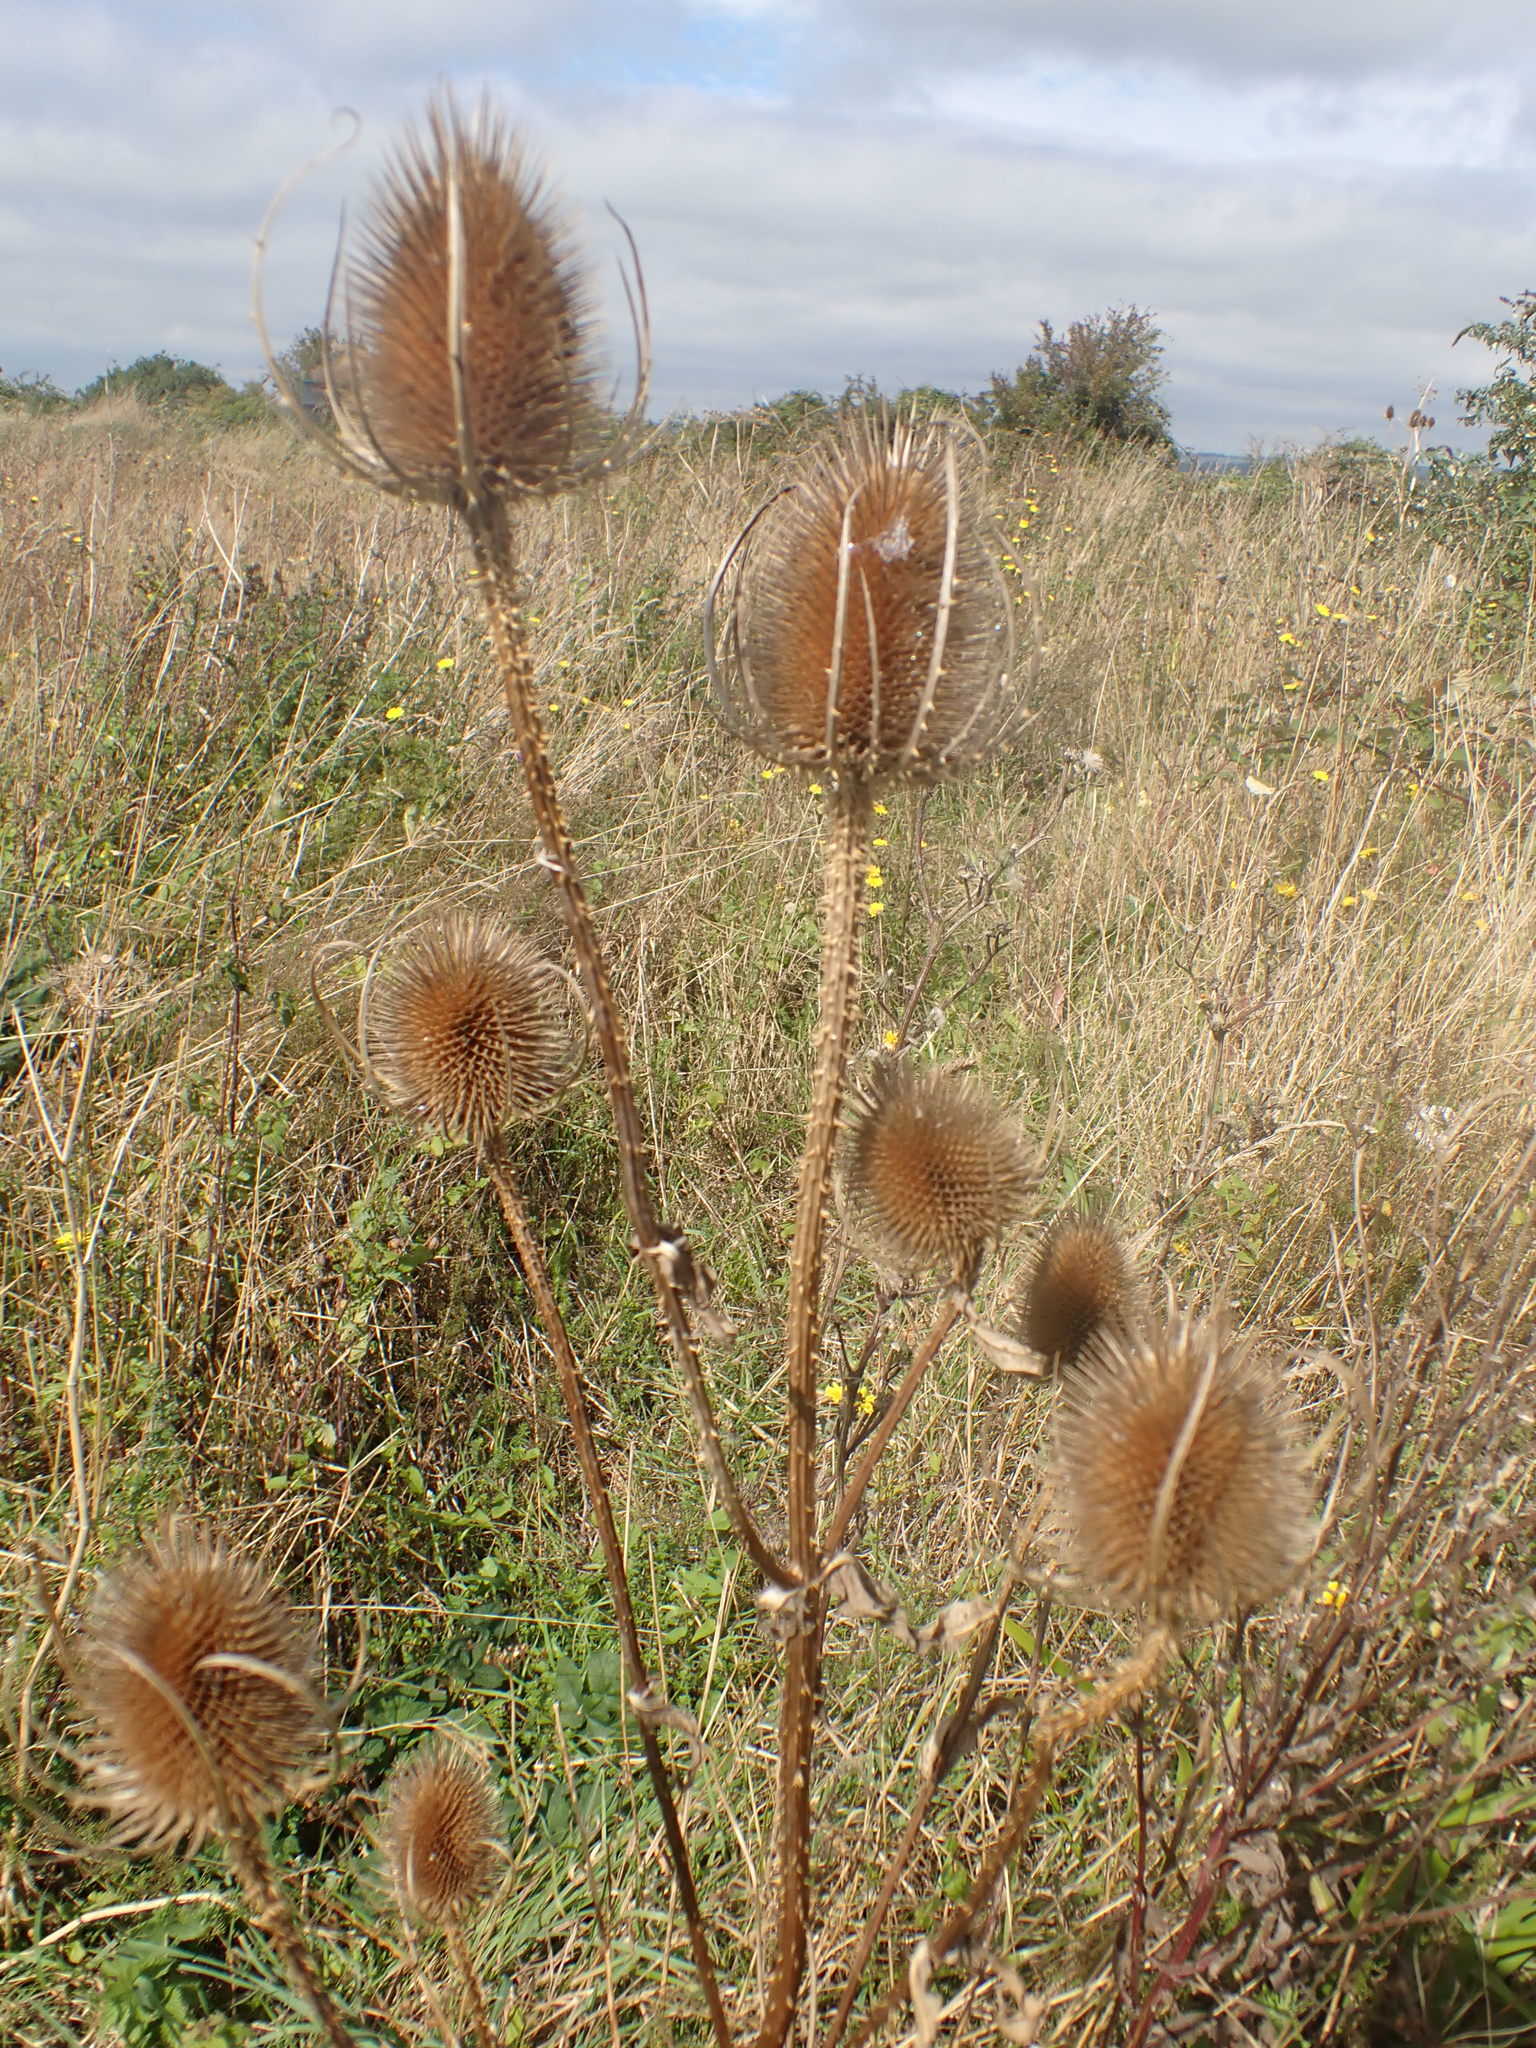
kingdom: Plantae
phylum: Tracheophyta
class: Magnoliopsida
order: Dipsacales
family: Caprifoliaceae
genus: Dipsacus
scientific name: Dipsacus fullonum
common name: Teasel
